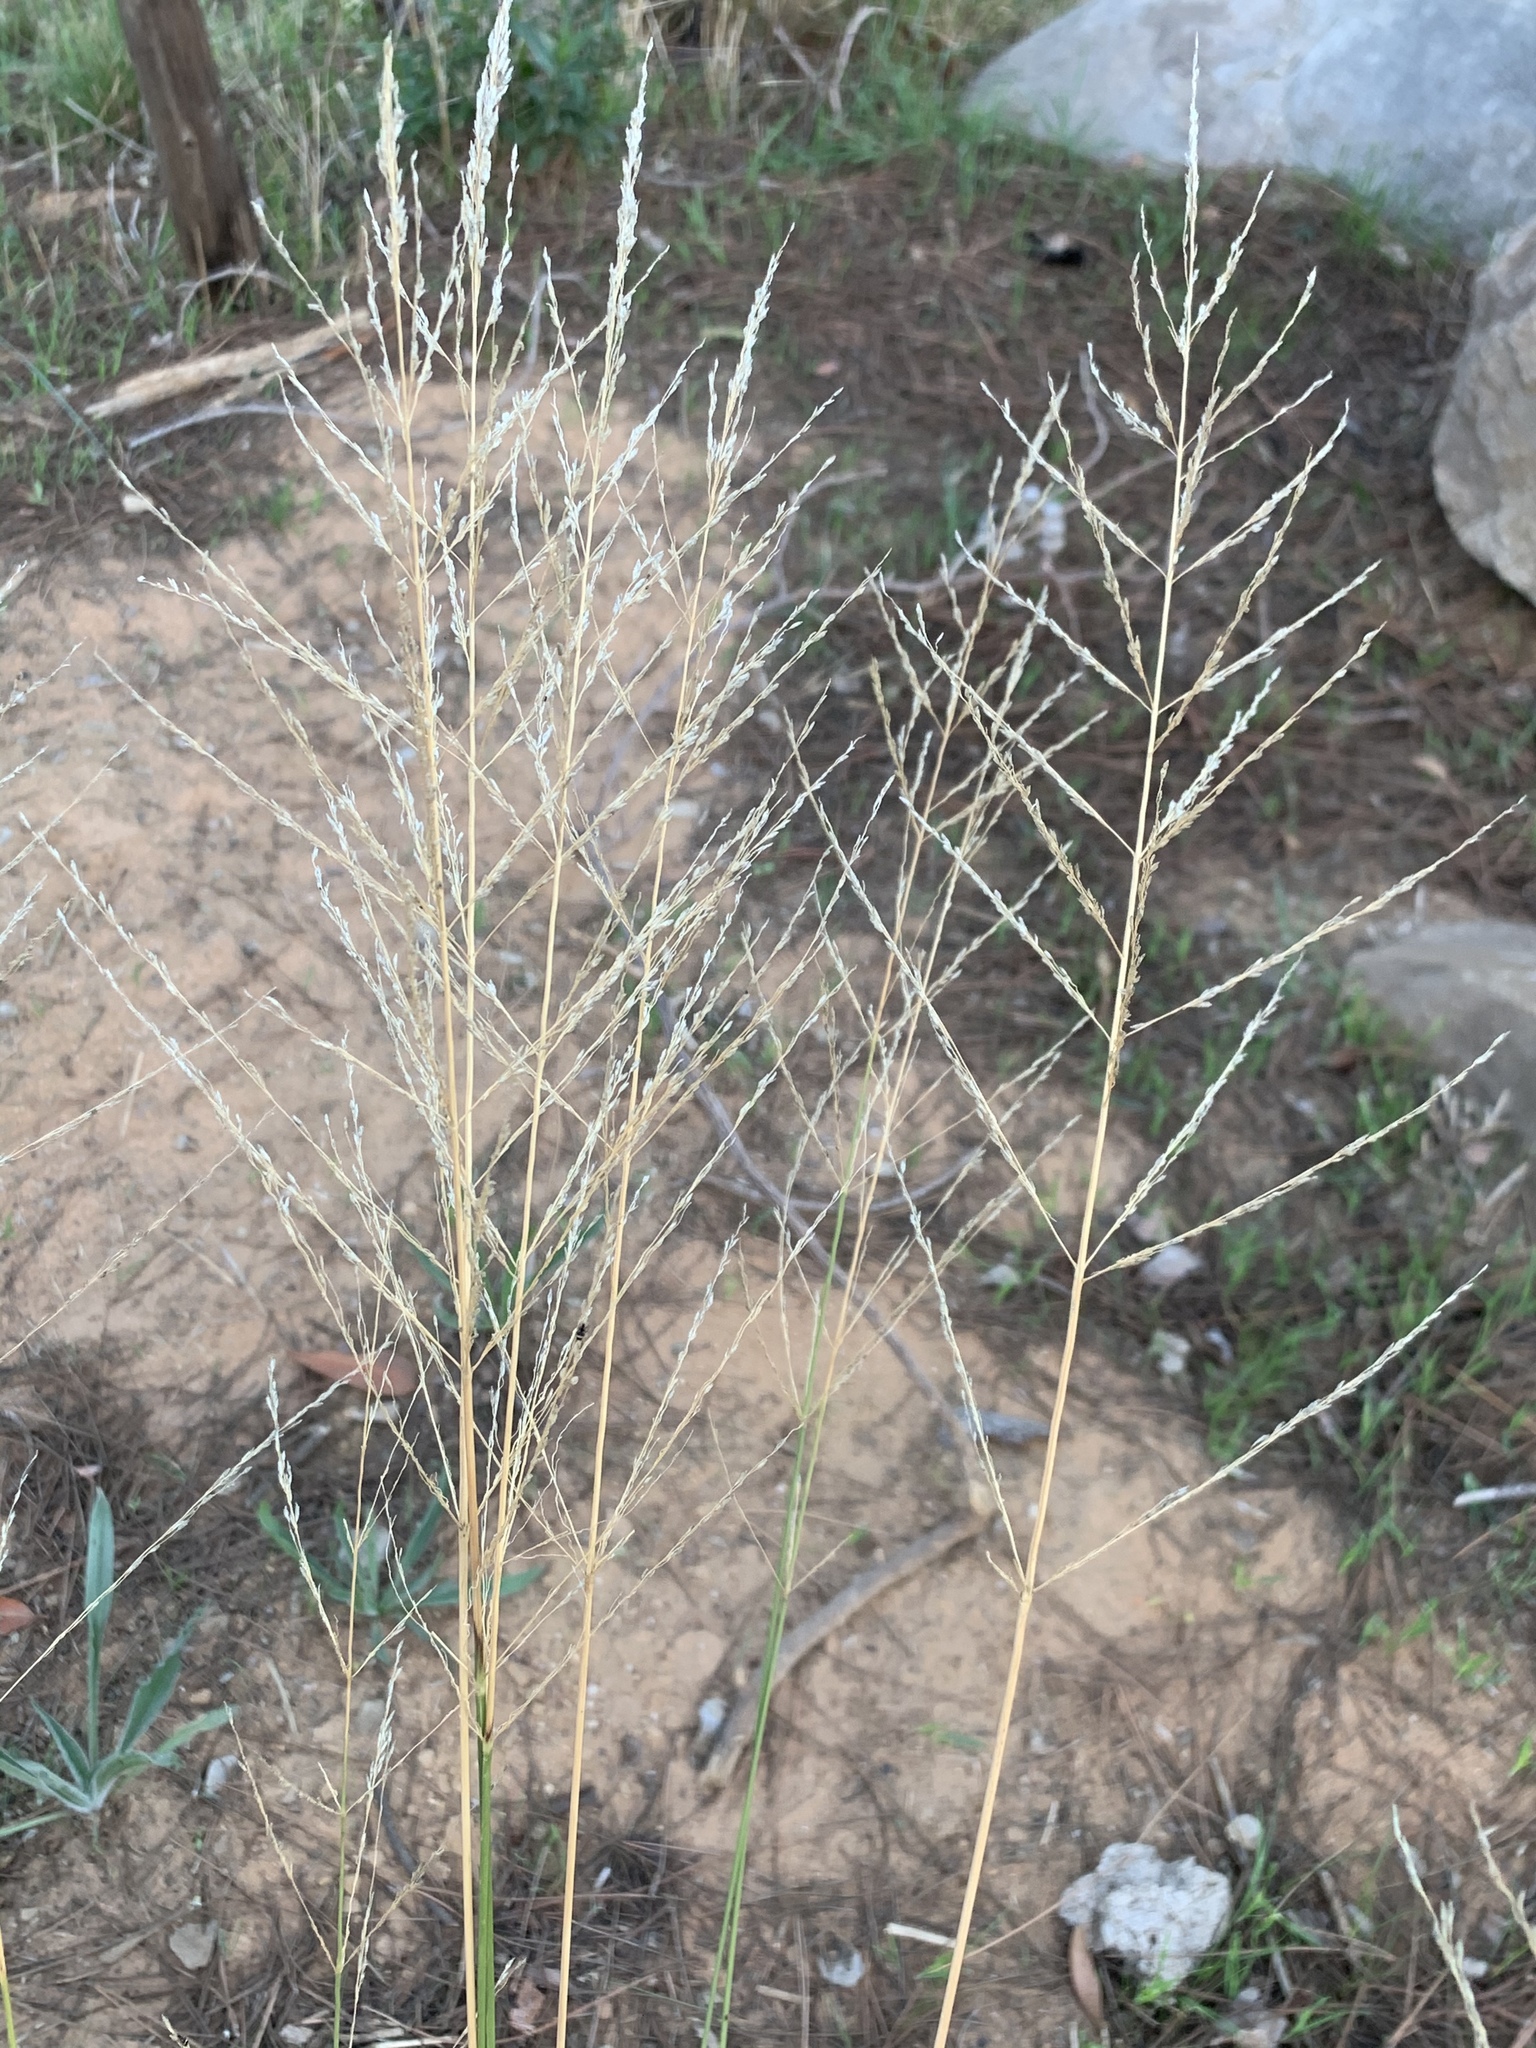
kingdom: Plantae
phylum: Tracheophyta
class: Liliopsida
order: Poales
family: Poaceae
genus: Eragrostis
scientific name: Eragrostis curvula
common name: African love-grass
